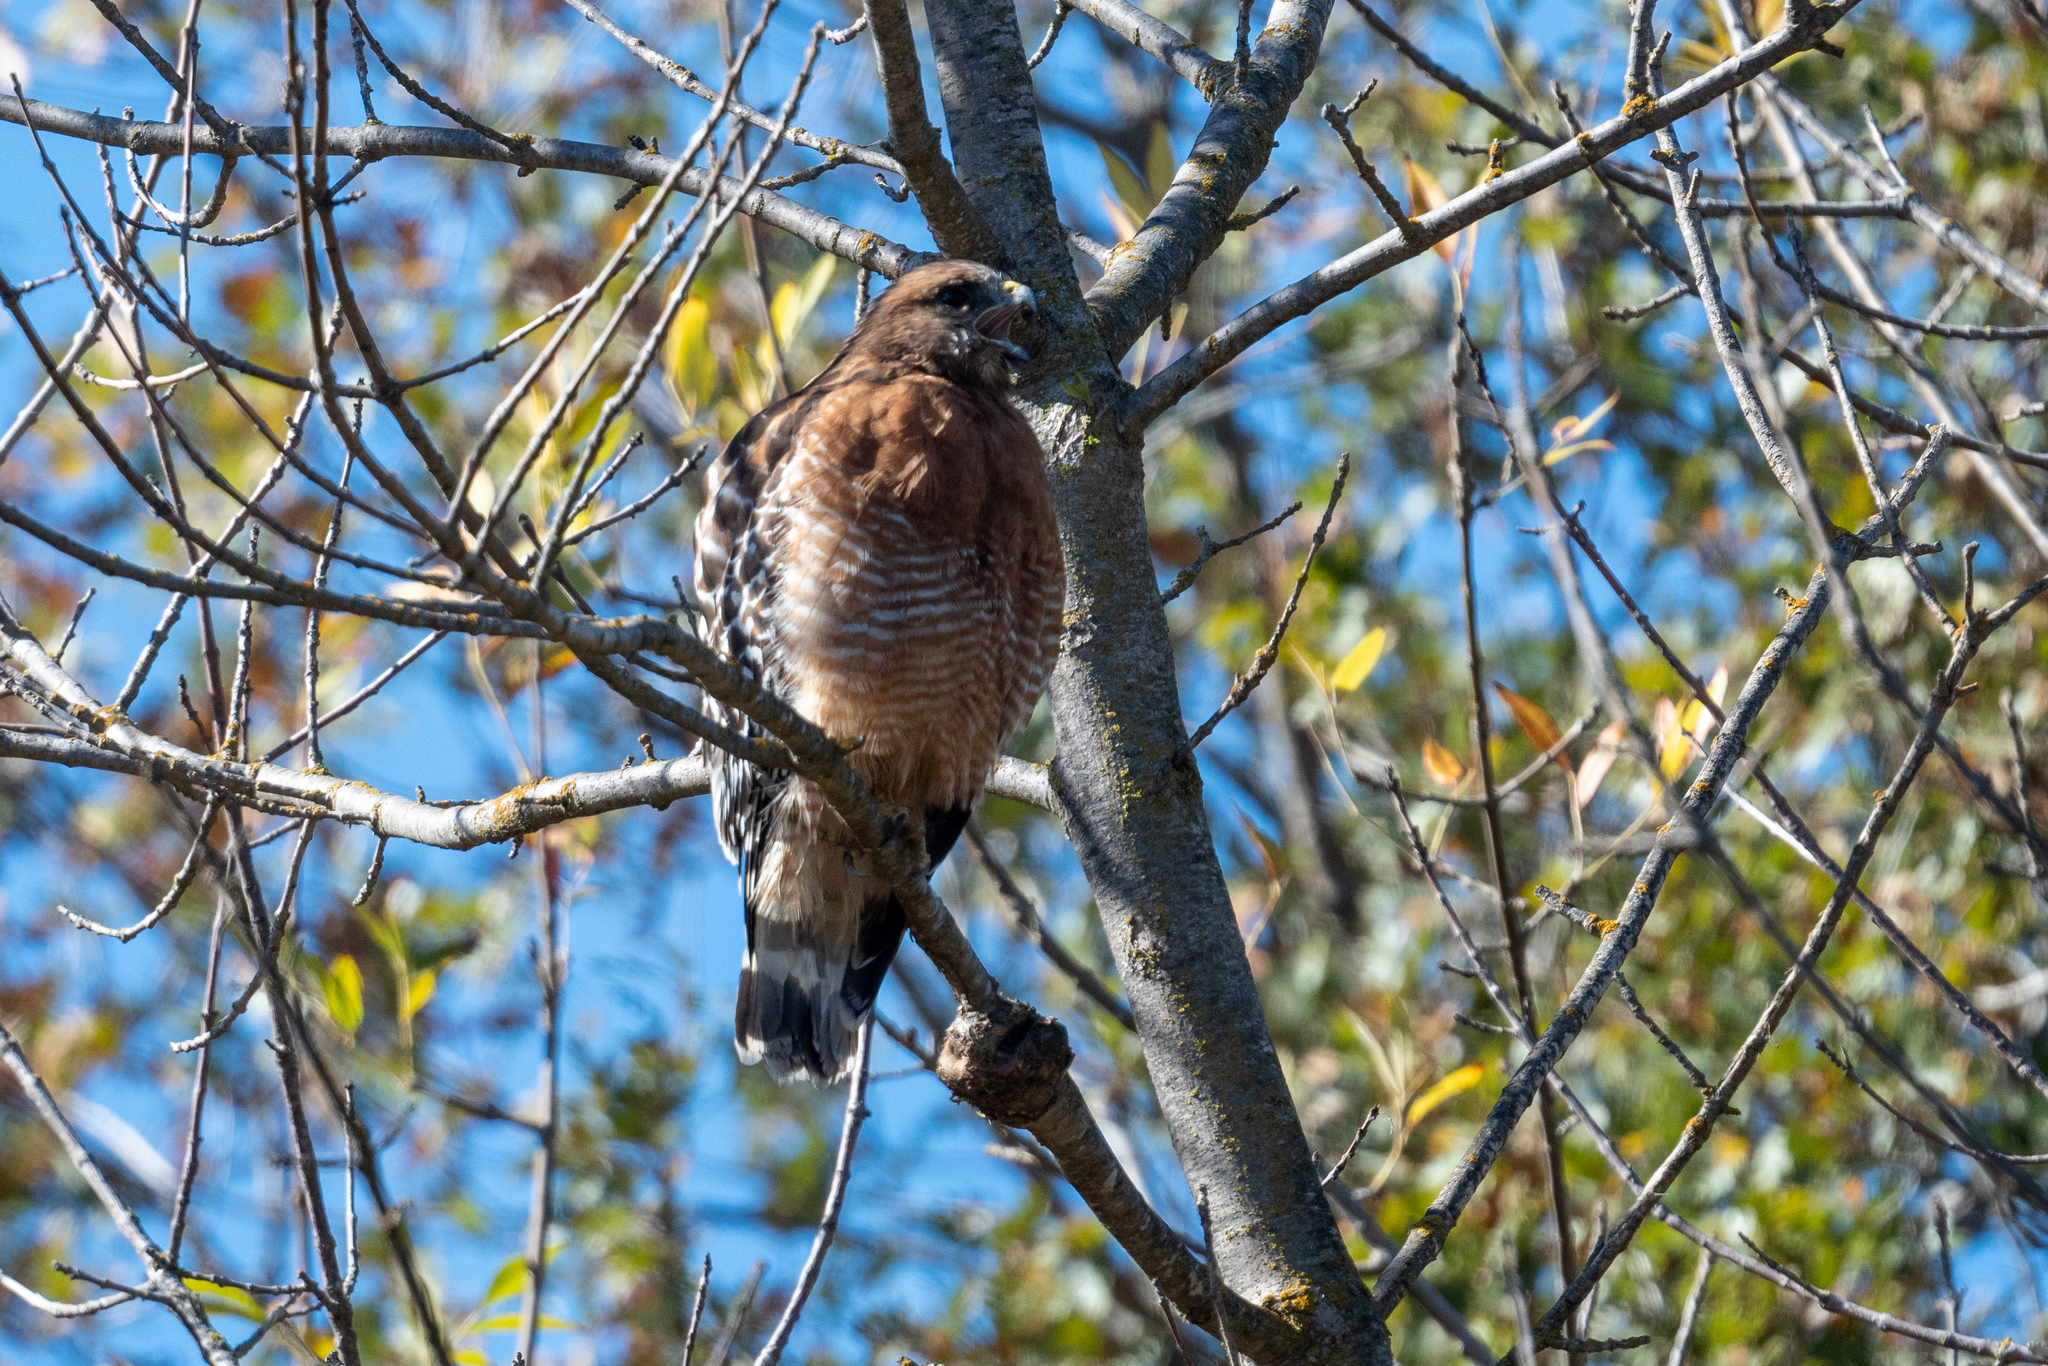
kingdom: Animalia
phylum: Chordata
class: Aves
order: Accipitriformes
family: Accipitridae
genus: Buteo
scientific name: Buteo lineatus
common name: Red-shouldered hawk
